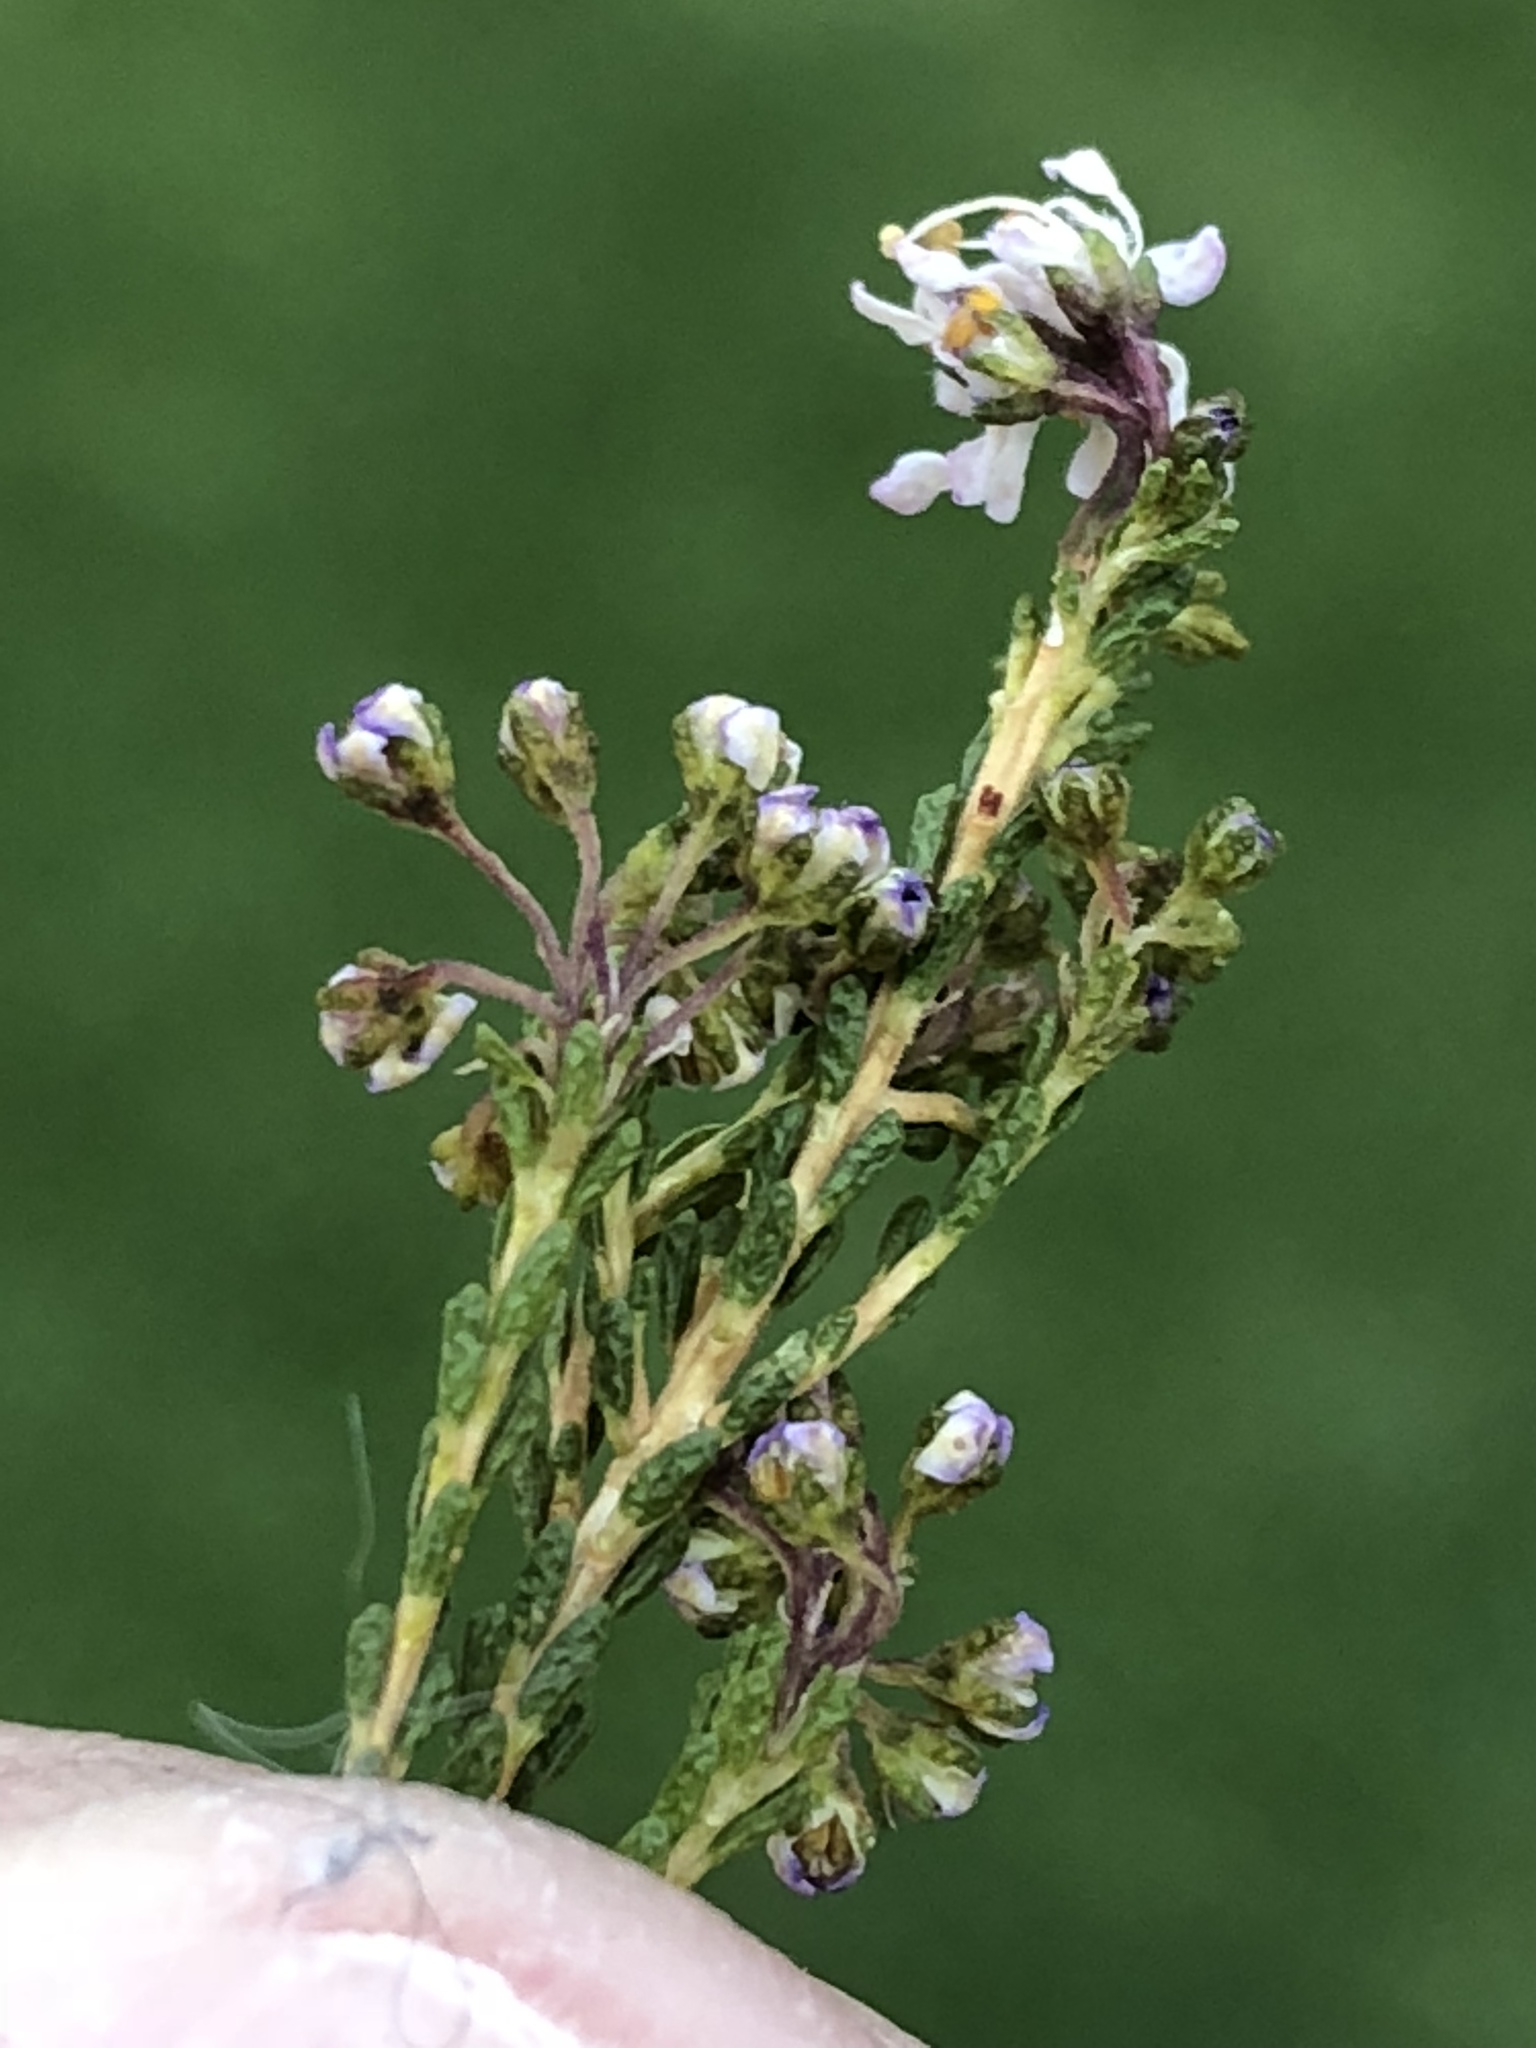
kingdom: Plantae
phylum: Tracheophyta
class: Magnoliopsida
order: Sapindales
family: Rutaceae
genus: Agathosma
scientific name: Agathosma capensis
